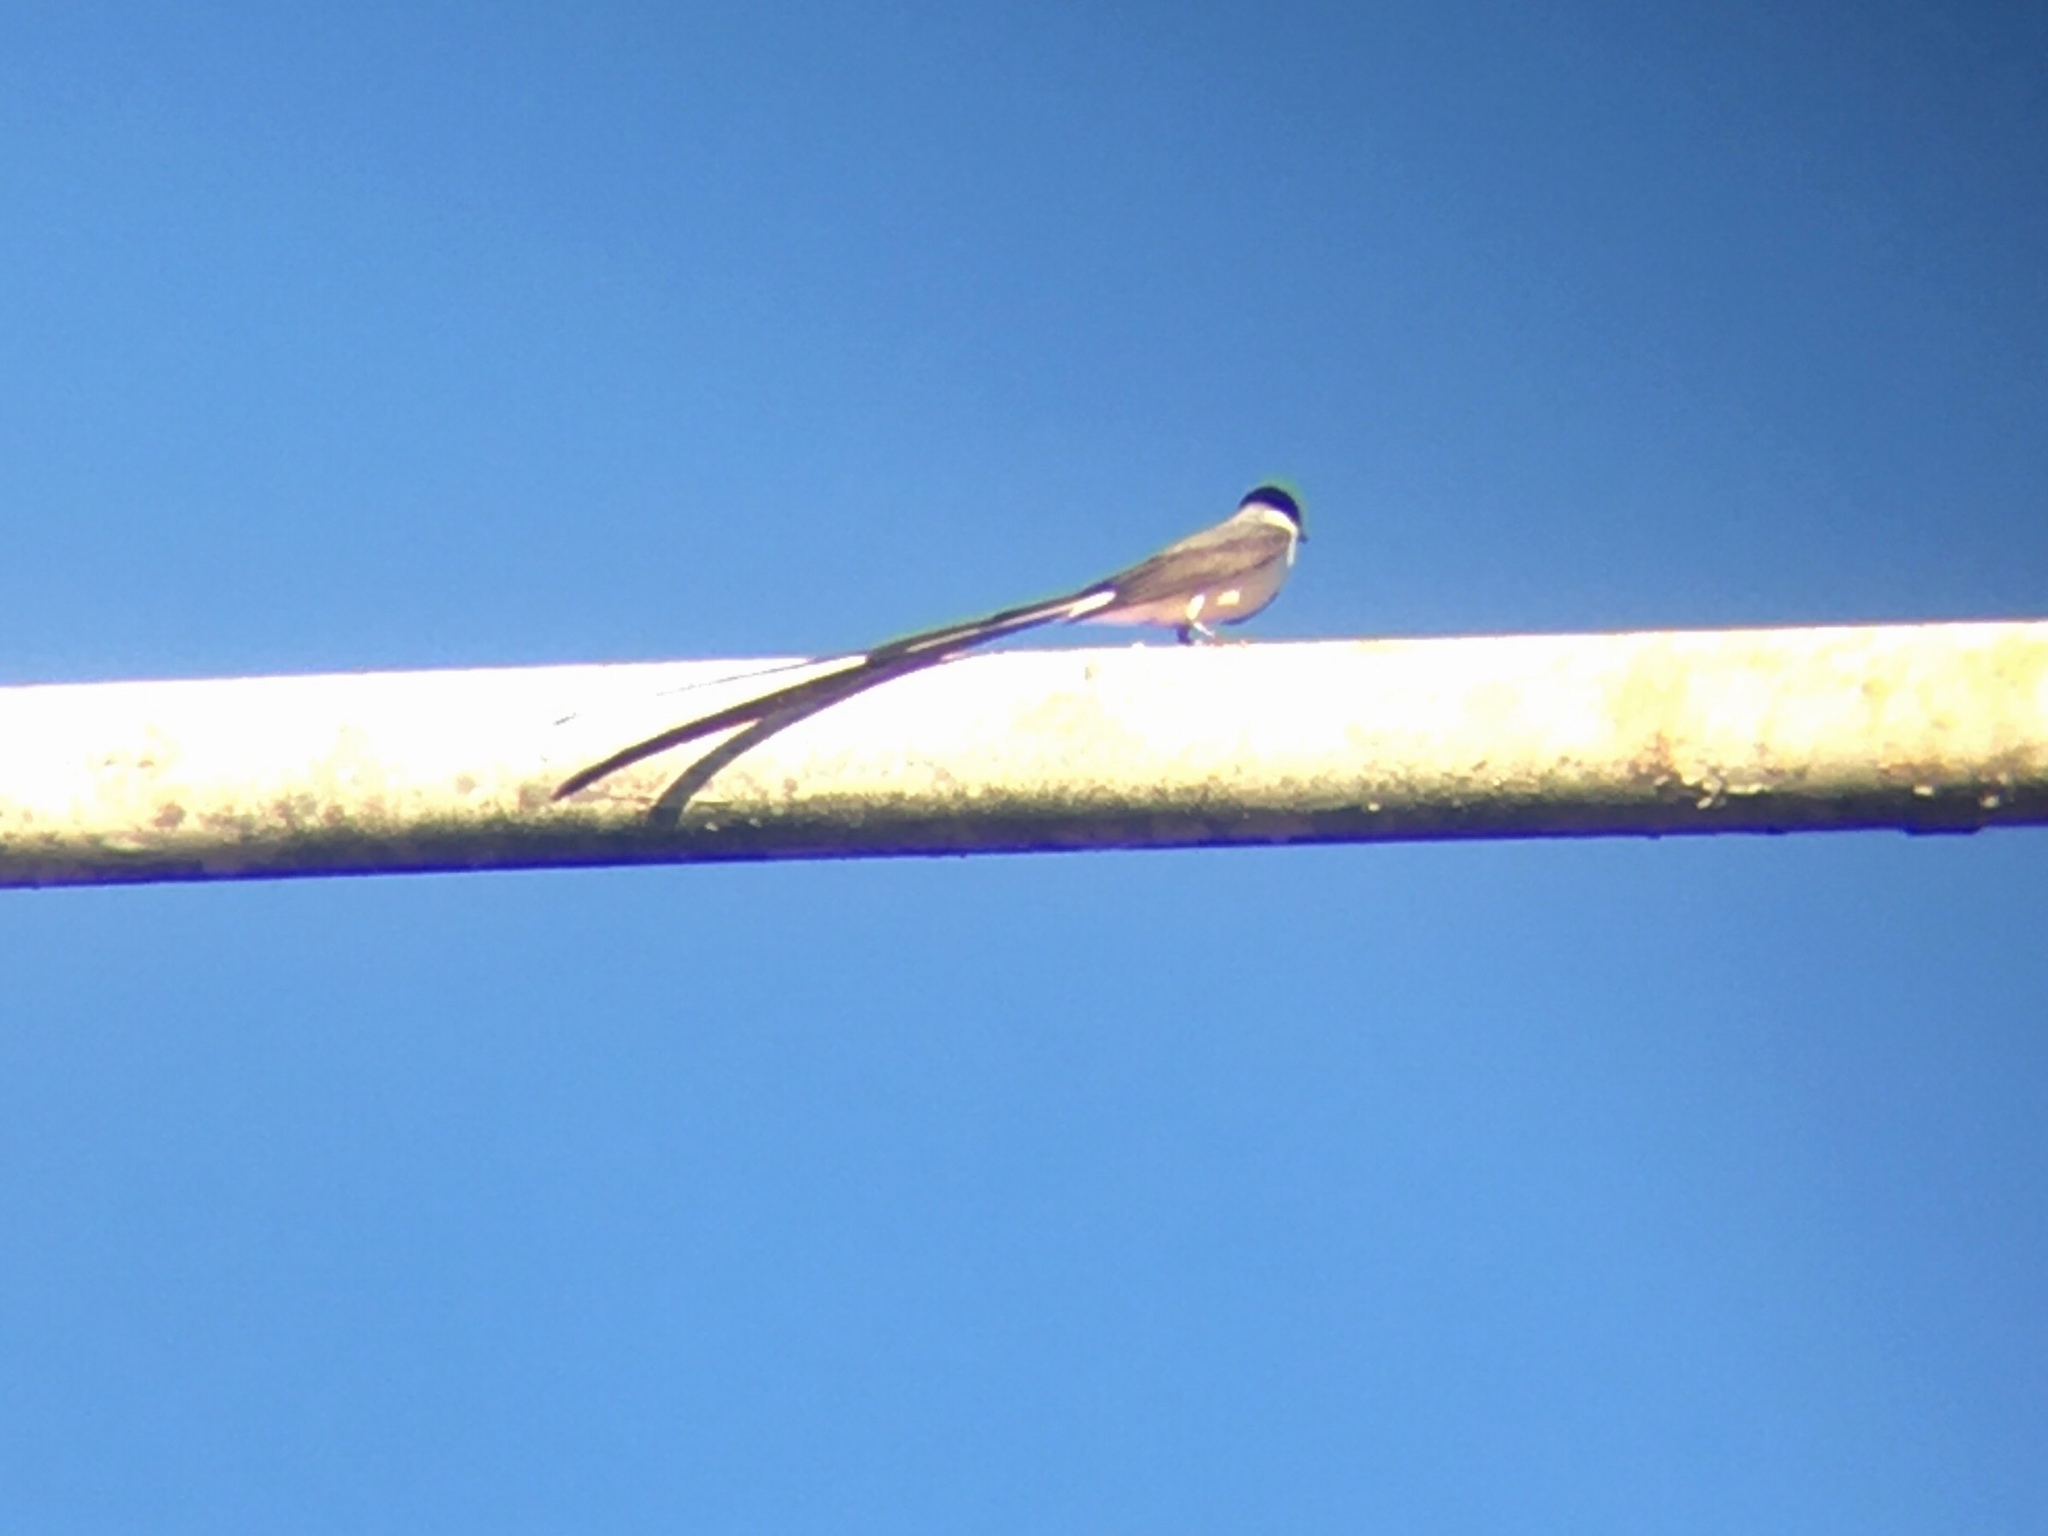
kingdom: Animalia
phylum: Chordata
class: Aves
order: Passeriformes
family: Tyrannidae
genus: Tyrannus
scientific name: Tyrannus savana
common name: Fork-tailed flycatcher
